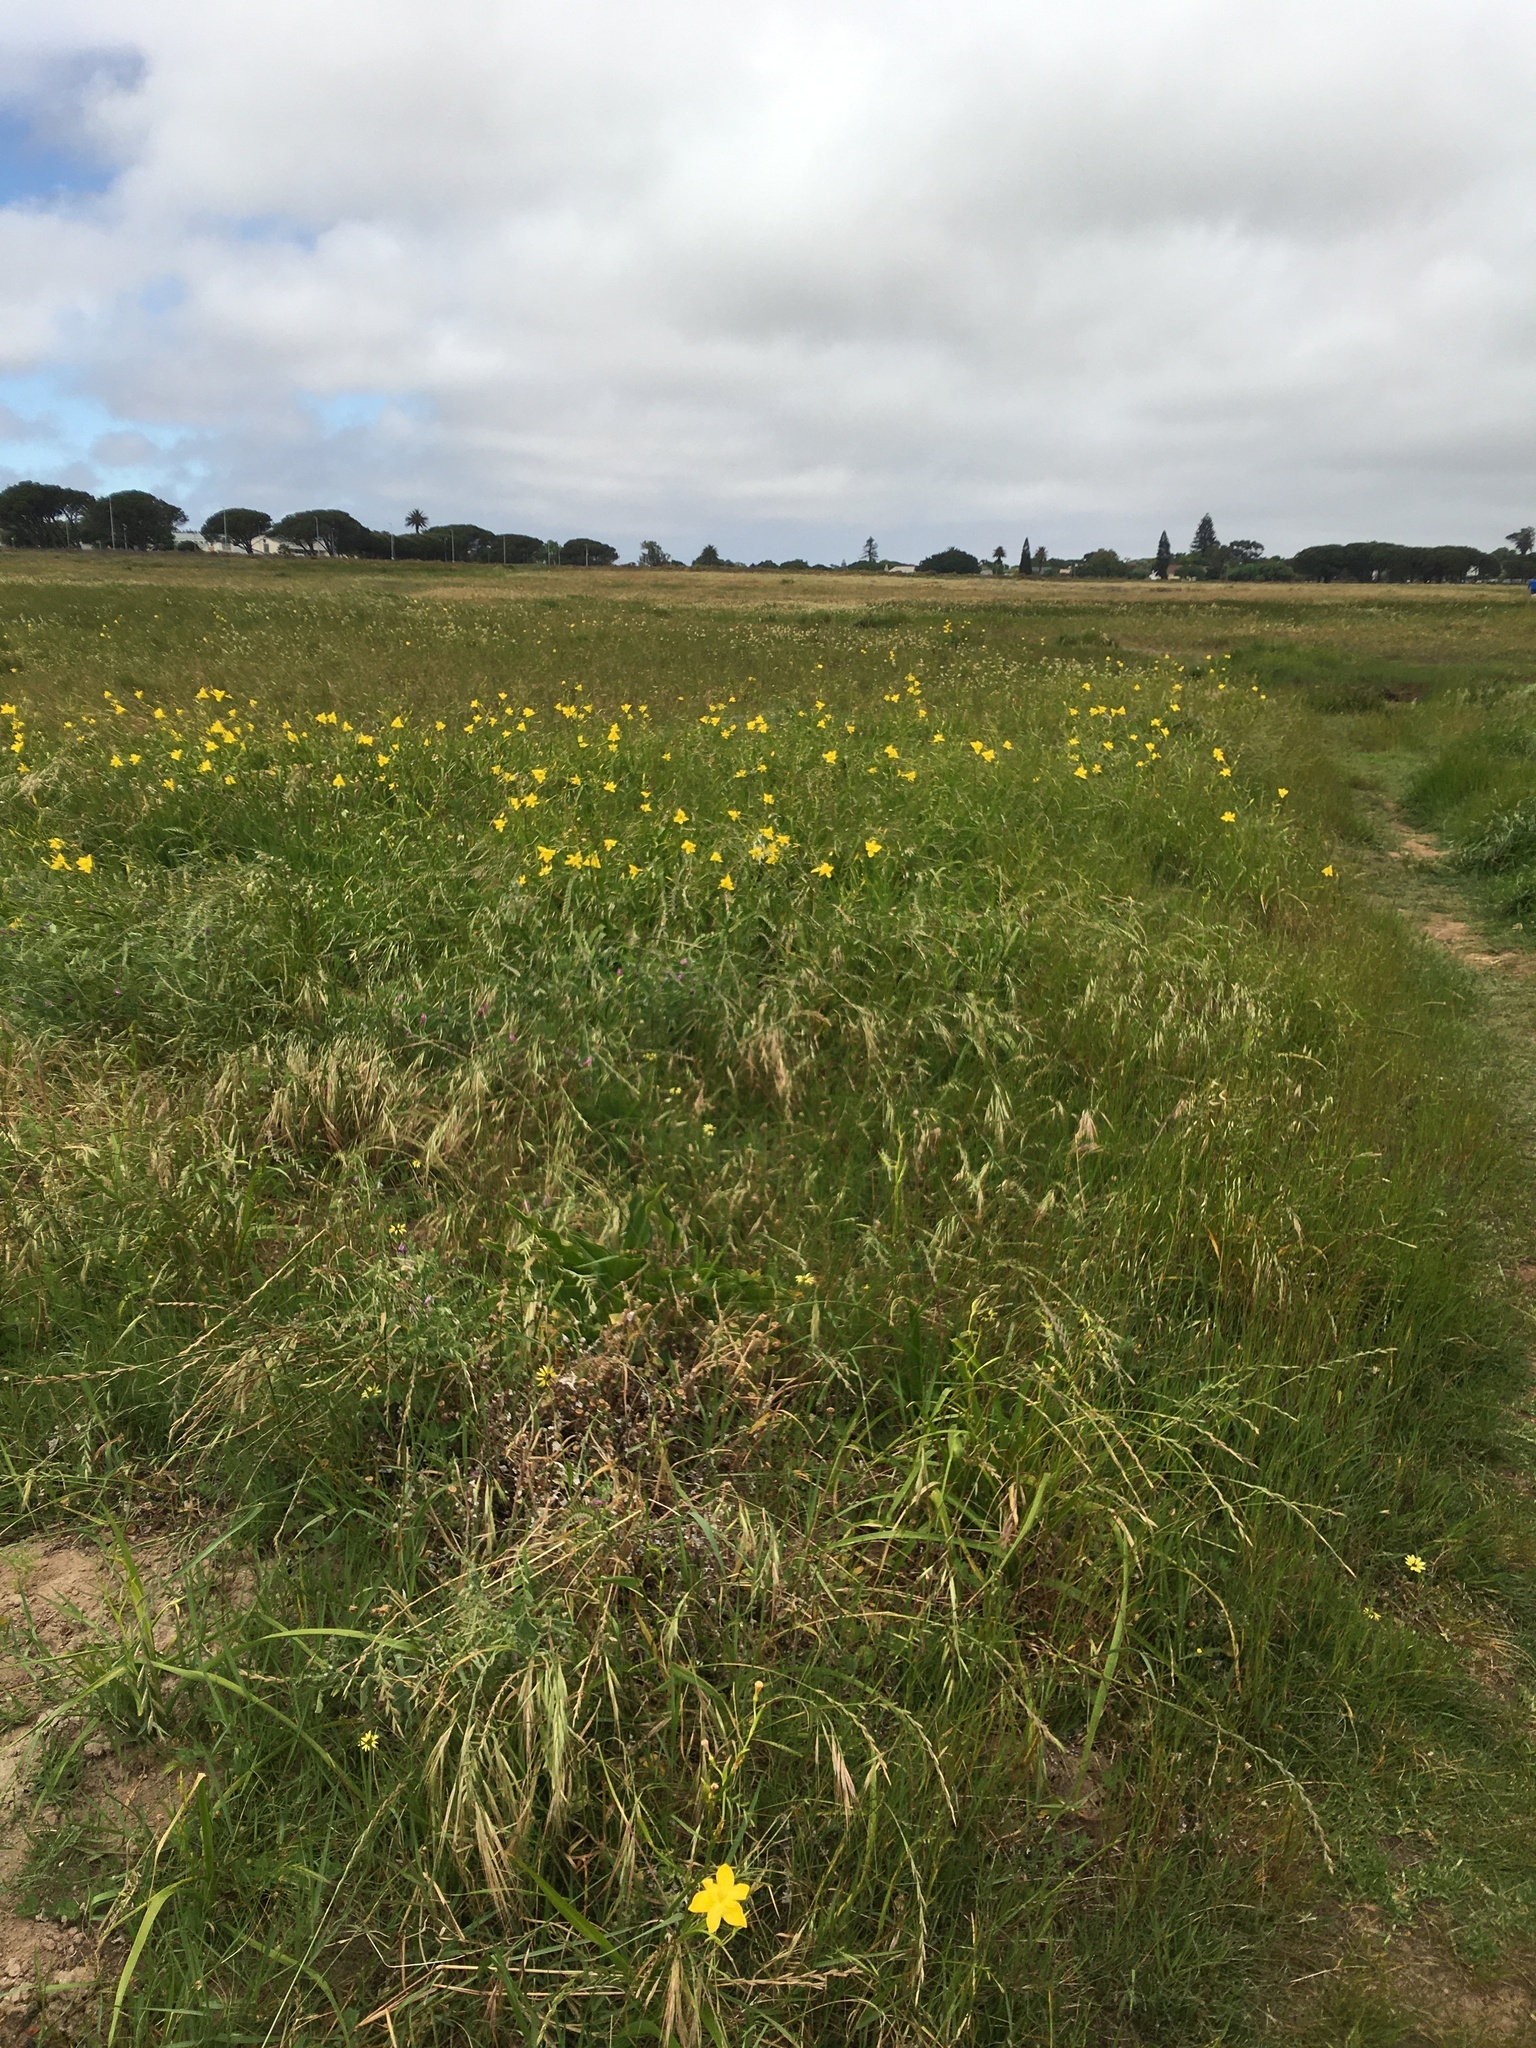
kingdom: Plantae
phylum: Tracheophyta
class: Liliopsida
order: Asparagales
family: Iridaceae
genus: Moraea
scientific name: Moraea ramosissima
